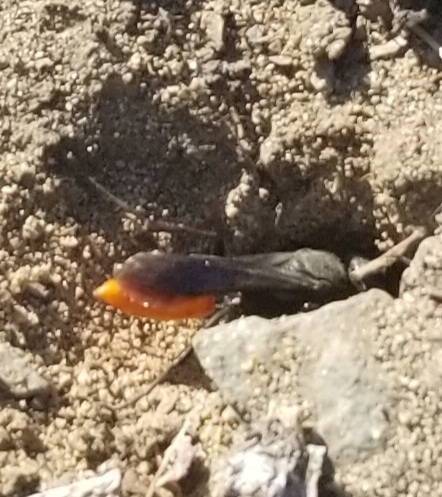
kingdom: Animalia
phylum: Arthropoda
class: Insecta
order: Hymenoptera
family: Sphecidae
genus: Sphex
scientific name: Sphex lucae
